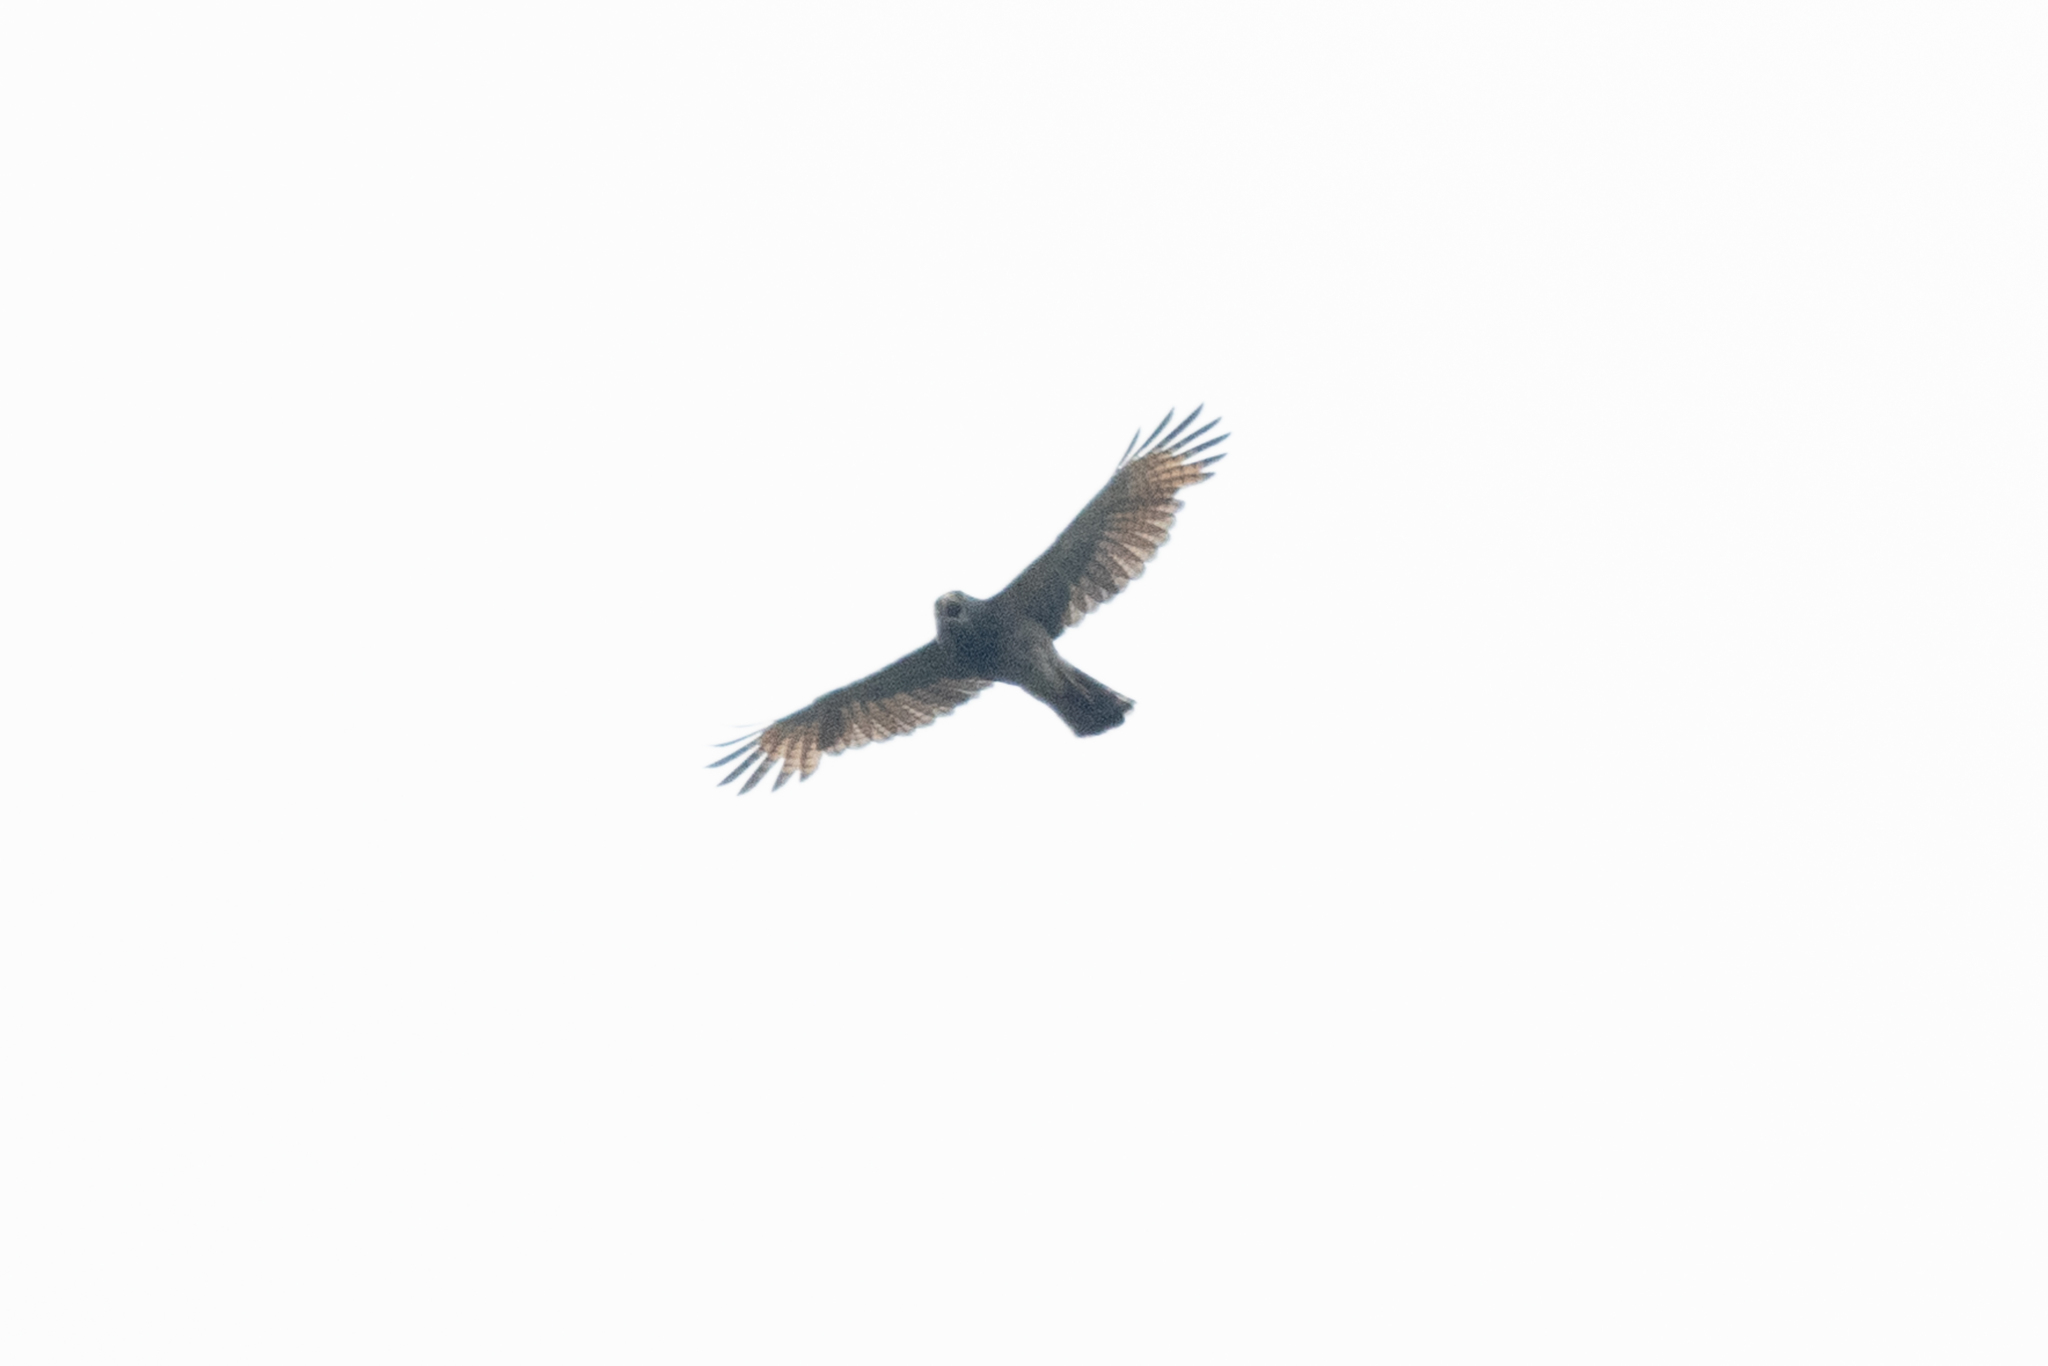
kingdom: Animalia
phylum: Chordata
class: Aves
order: Accipitriformes
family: Accipitridae
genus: Rupornis
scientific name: Rupornis magnirostris
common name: Roadside hawk
